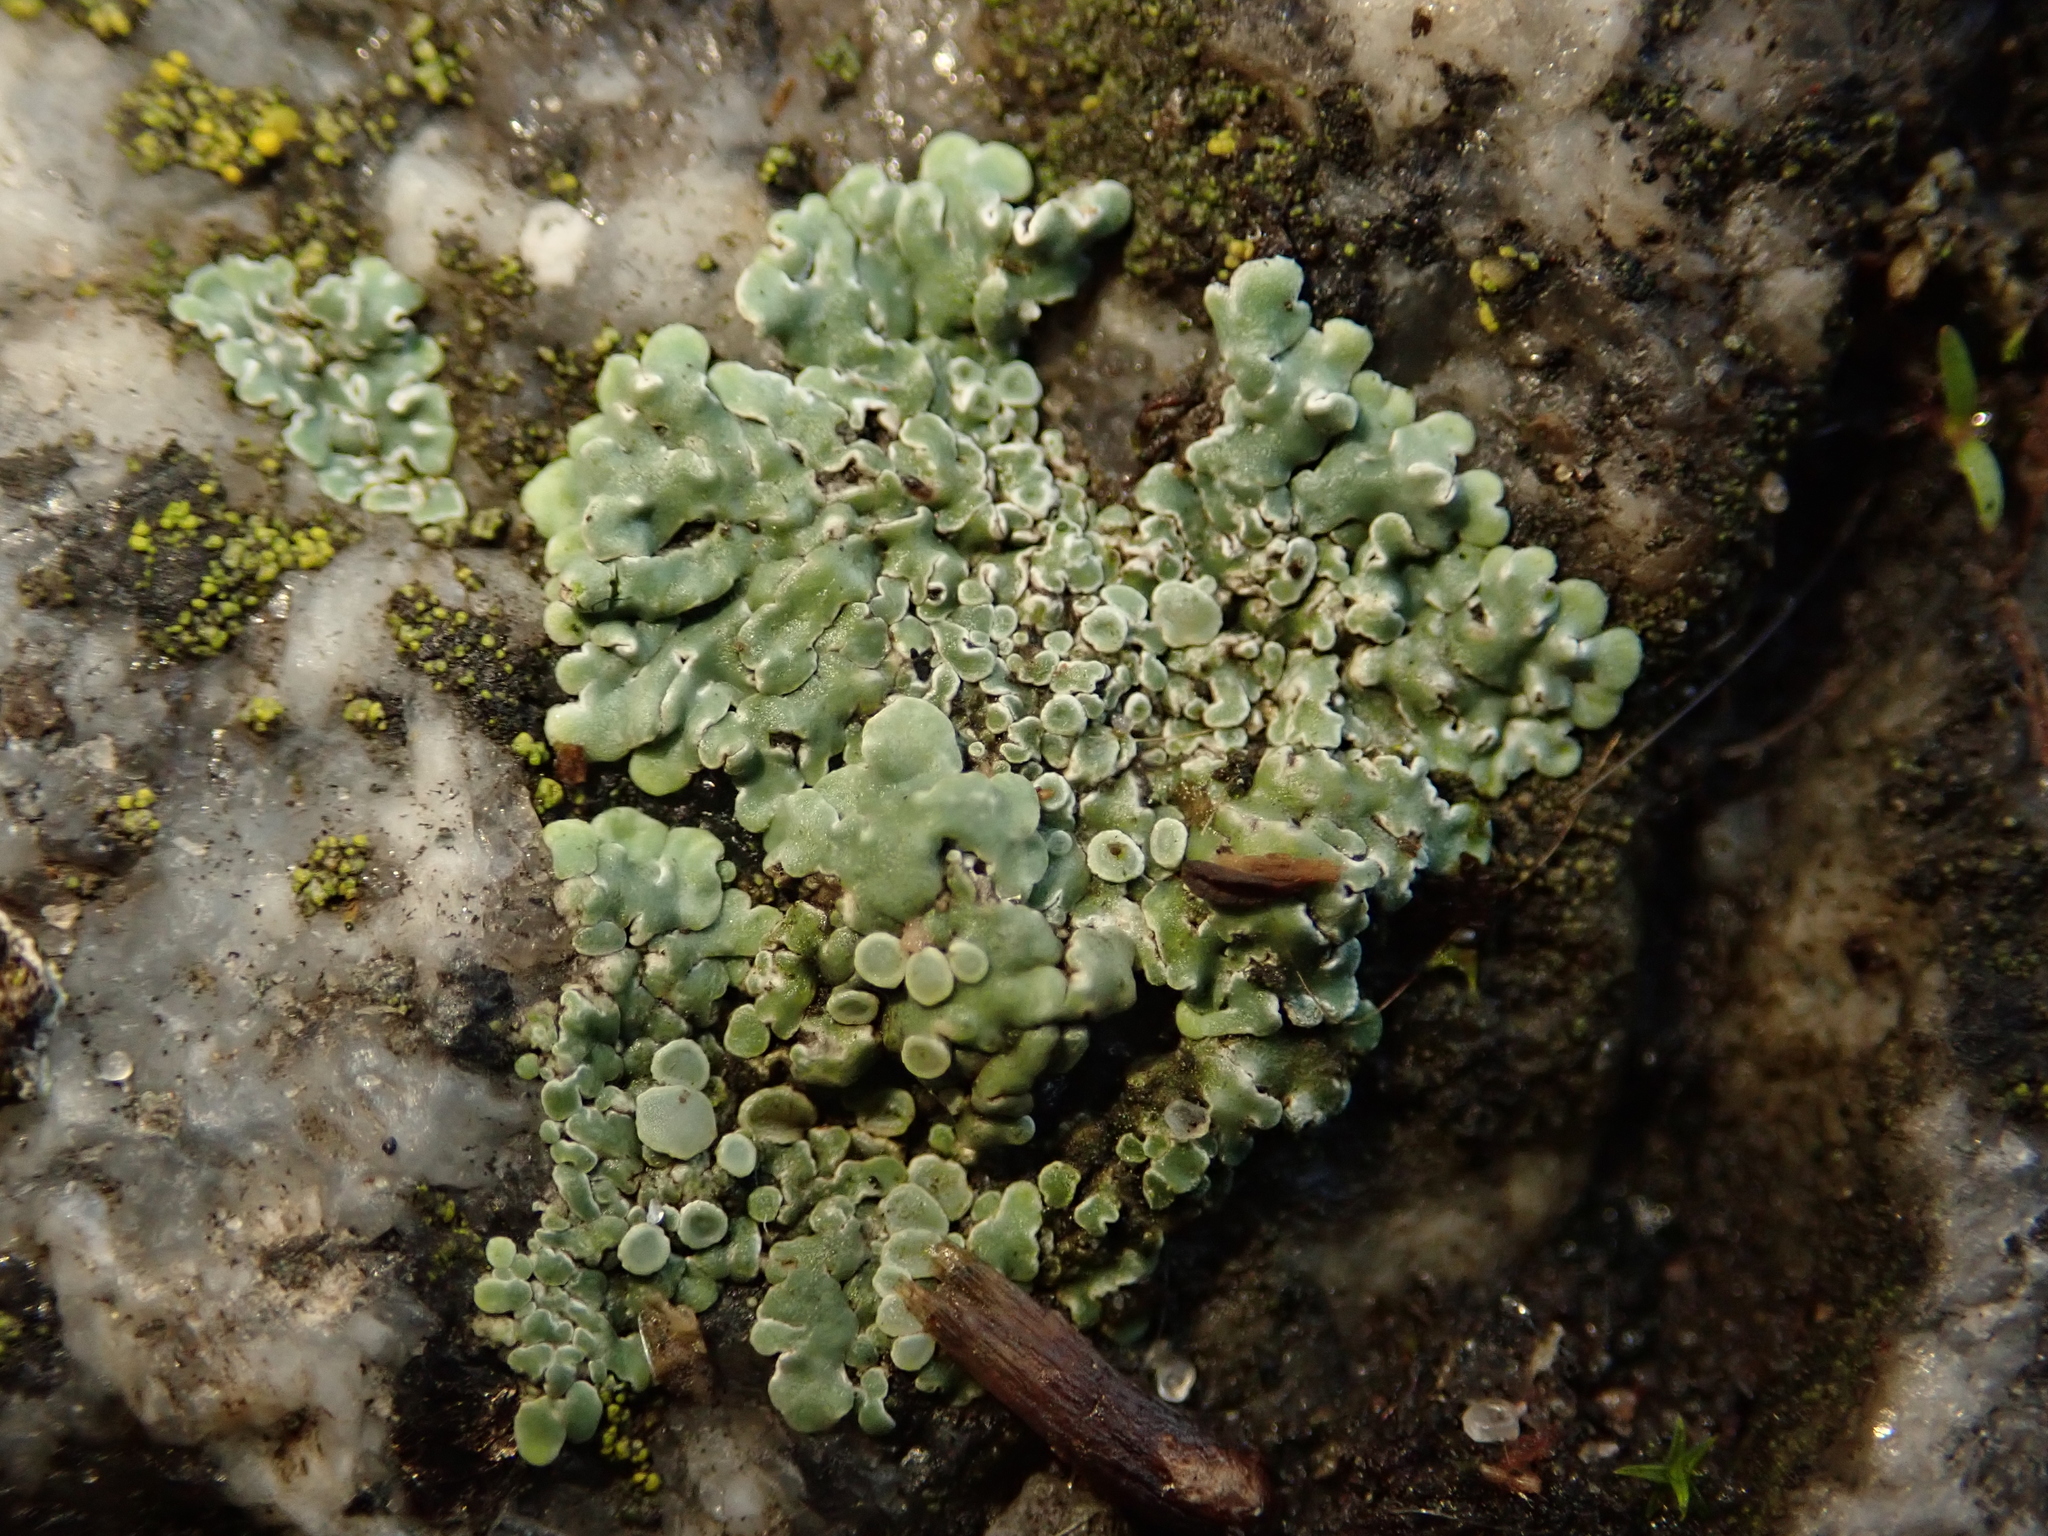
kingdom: Fungi
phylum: Ascomycota
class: Lecanoromycetes
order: Lecanorales
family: Lecanoraceae
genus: Protoparmeliopsis
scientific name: Protoparmeliopsis muralis
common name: Stonewall rim lichen
